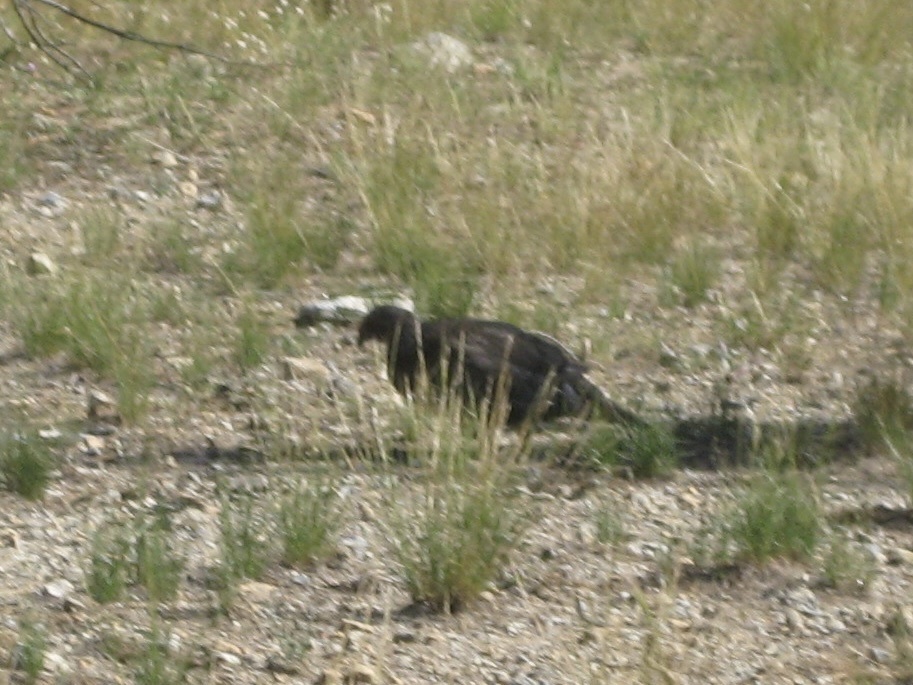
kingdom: Animalia
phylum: Chordata
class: Aves
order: Galliformes
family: Phasianidae
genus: Dendragapus
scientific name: Dendragapus fuliginosus
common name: Sooty grouse
